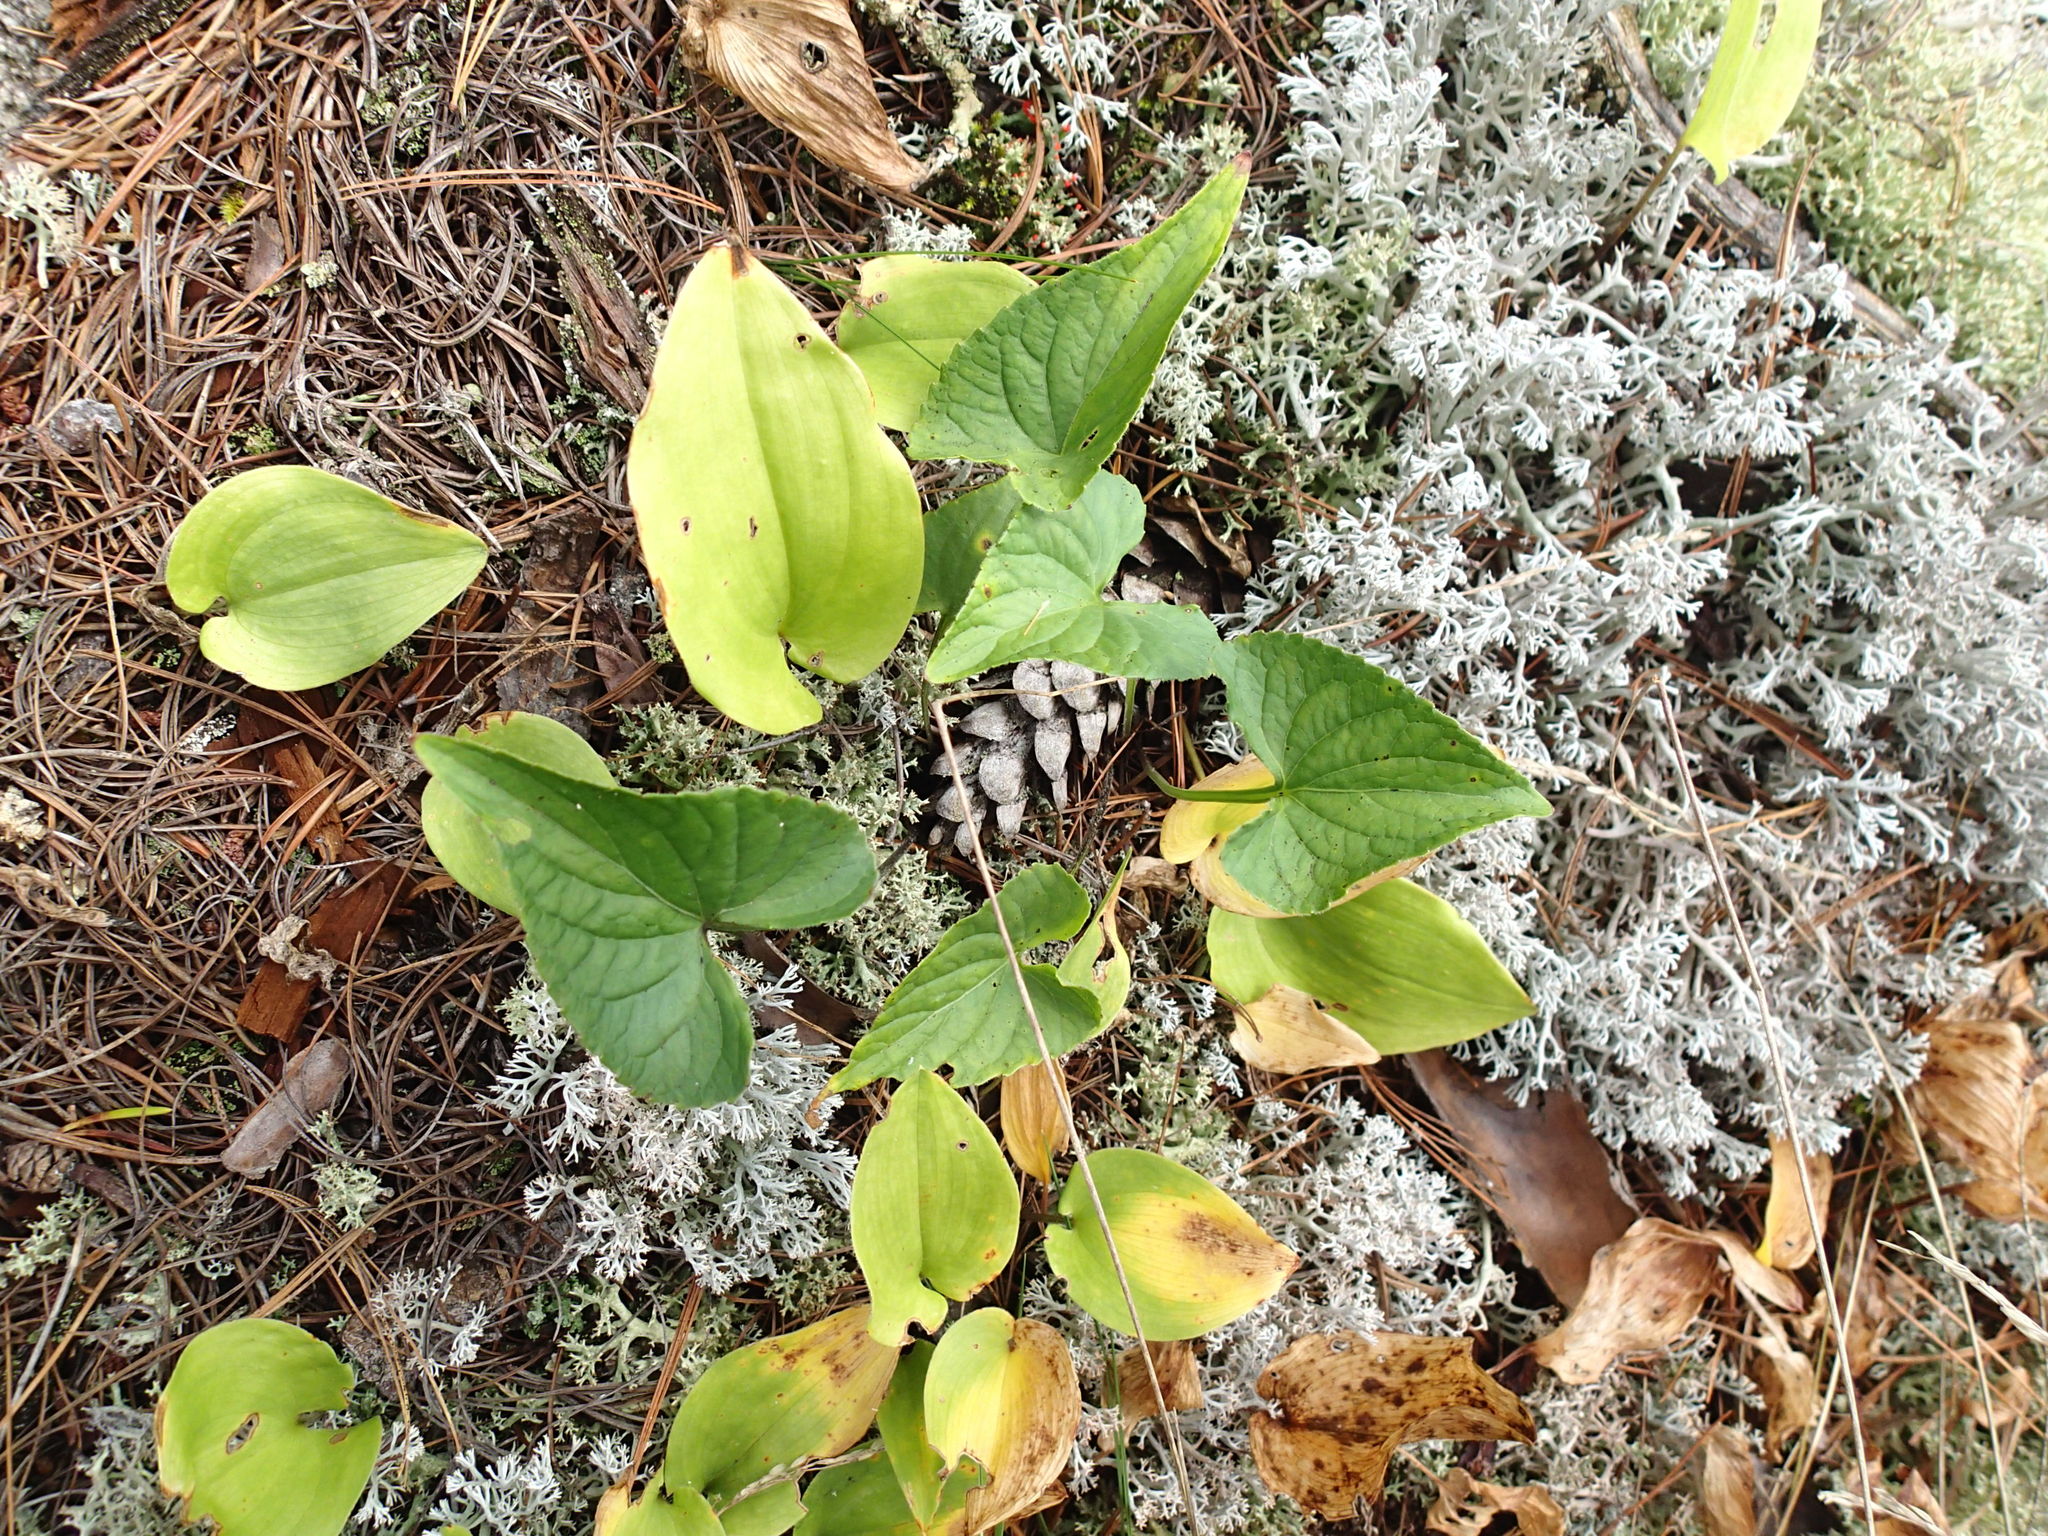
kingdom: Plantae
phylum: Tracheophyta
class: Magnoliopsida
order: Malpighiales
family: Violaceae
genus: Viola
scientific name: Viola novae-angliae
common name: New england blue violet
